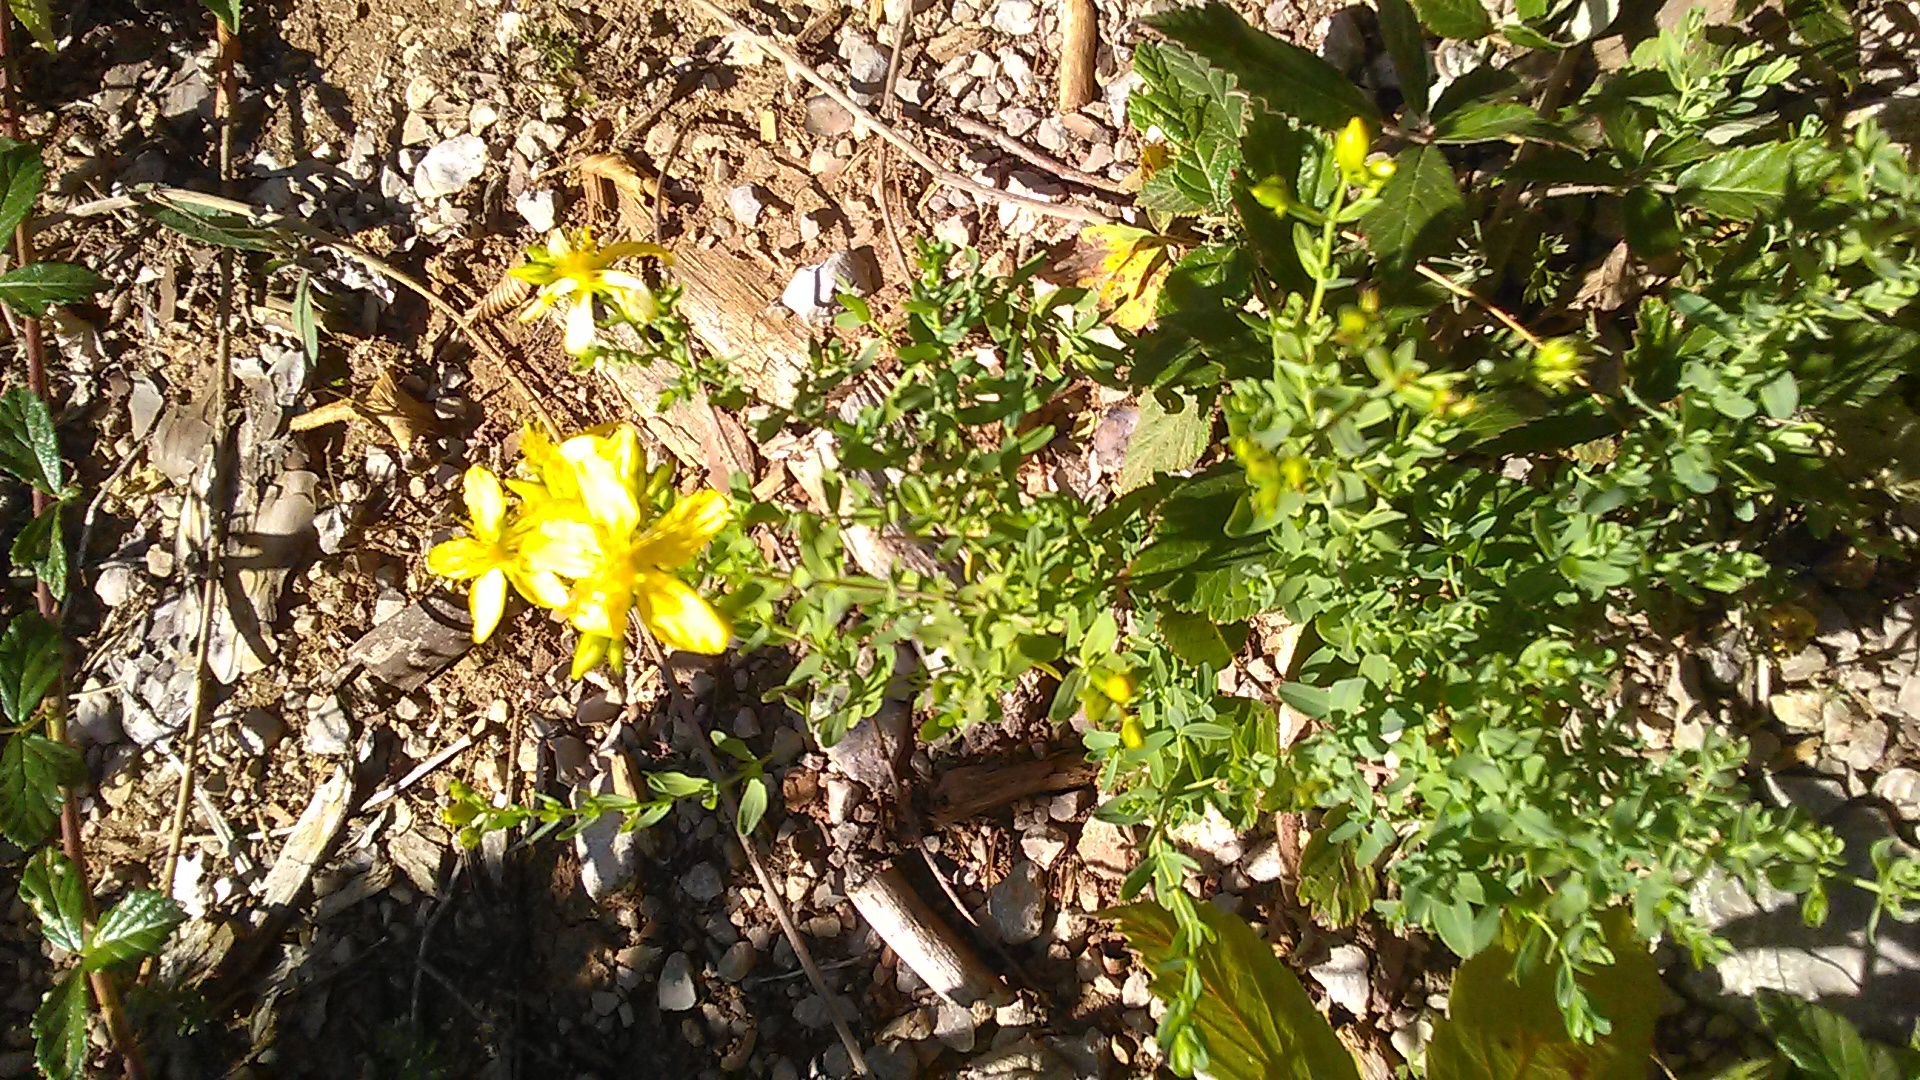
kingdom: Plantae
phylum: Tracheophyta
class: Magnoliopsida
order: Malpighiales
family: Hypericaceae
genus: Hypericum
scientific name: Hypericum perforatum
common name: Common st. johnswort
